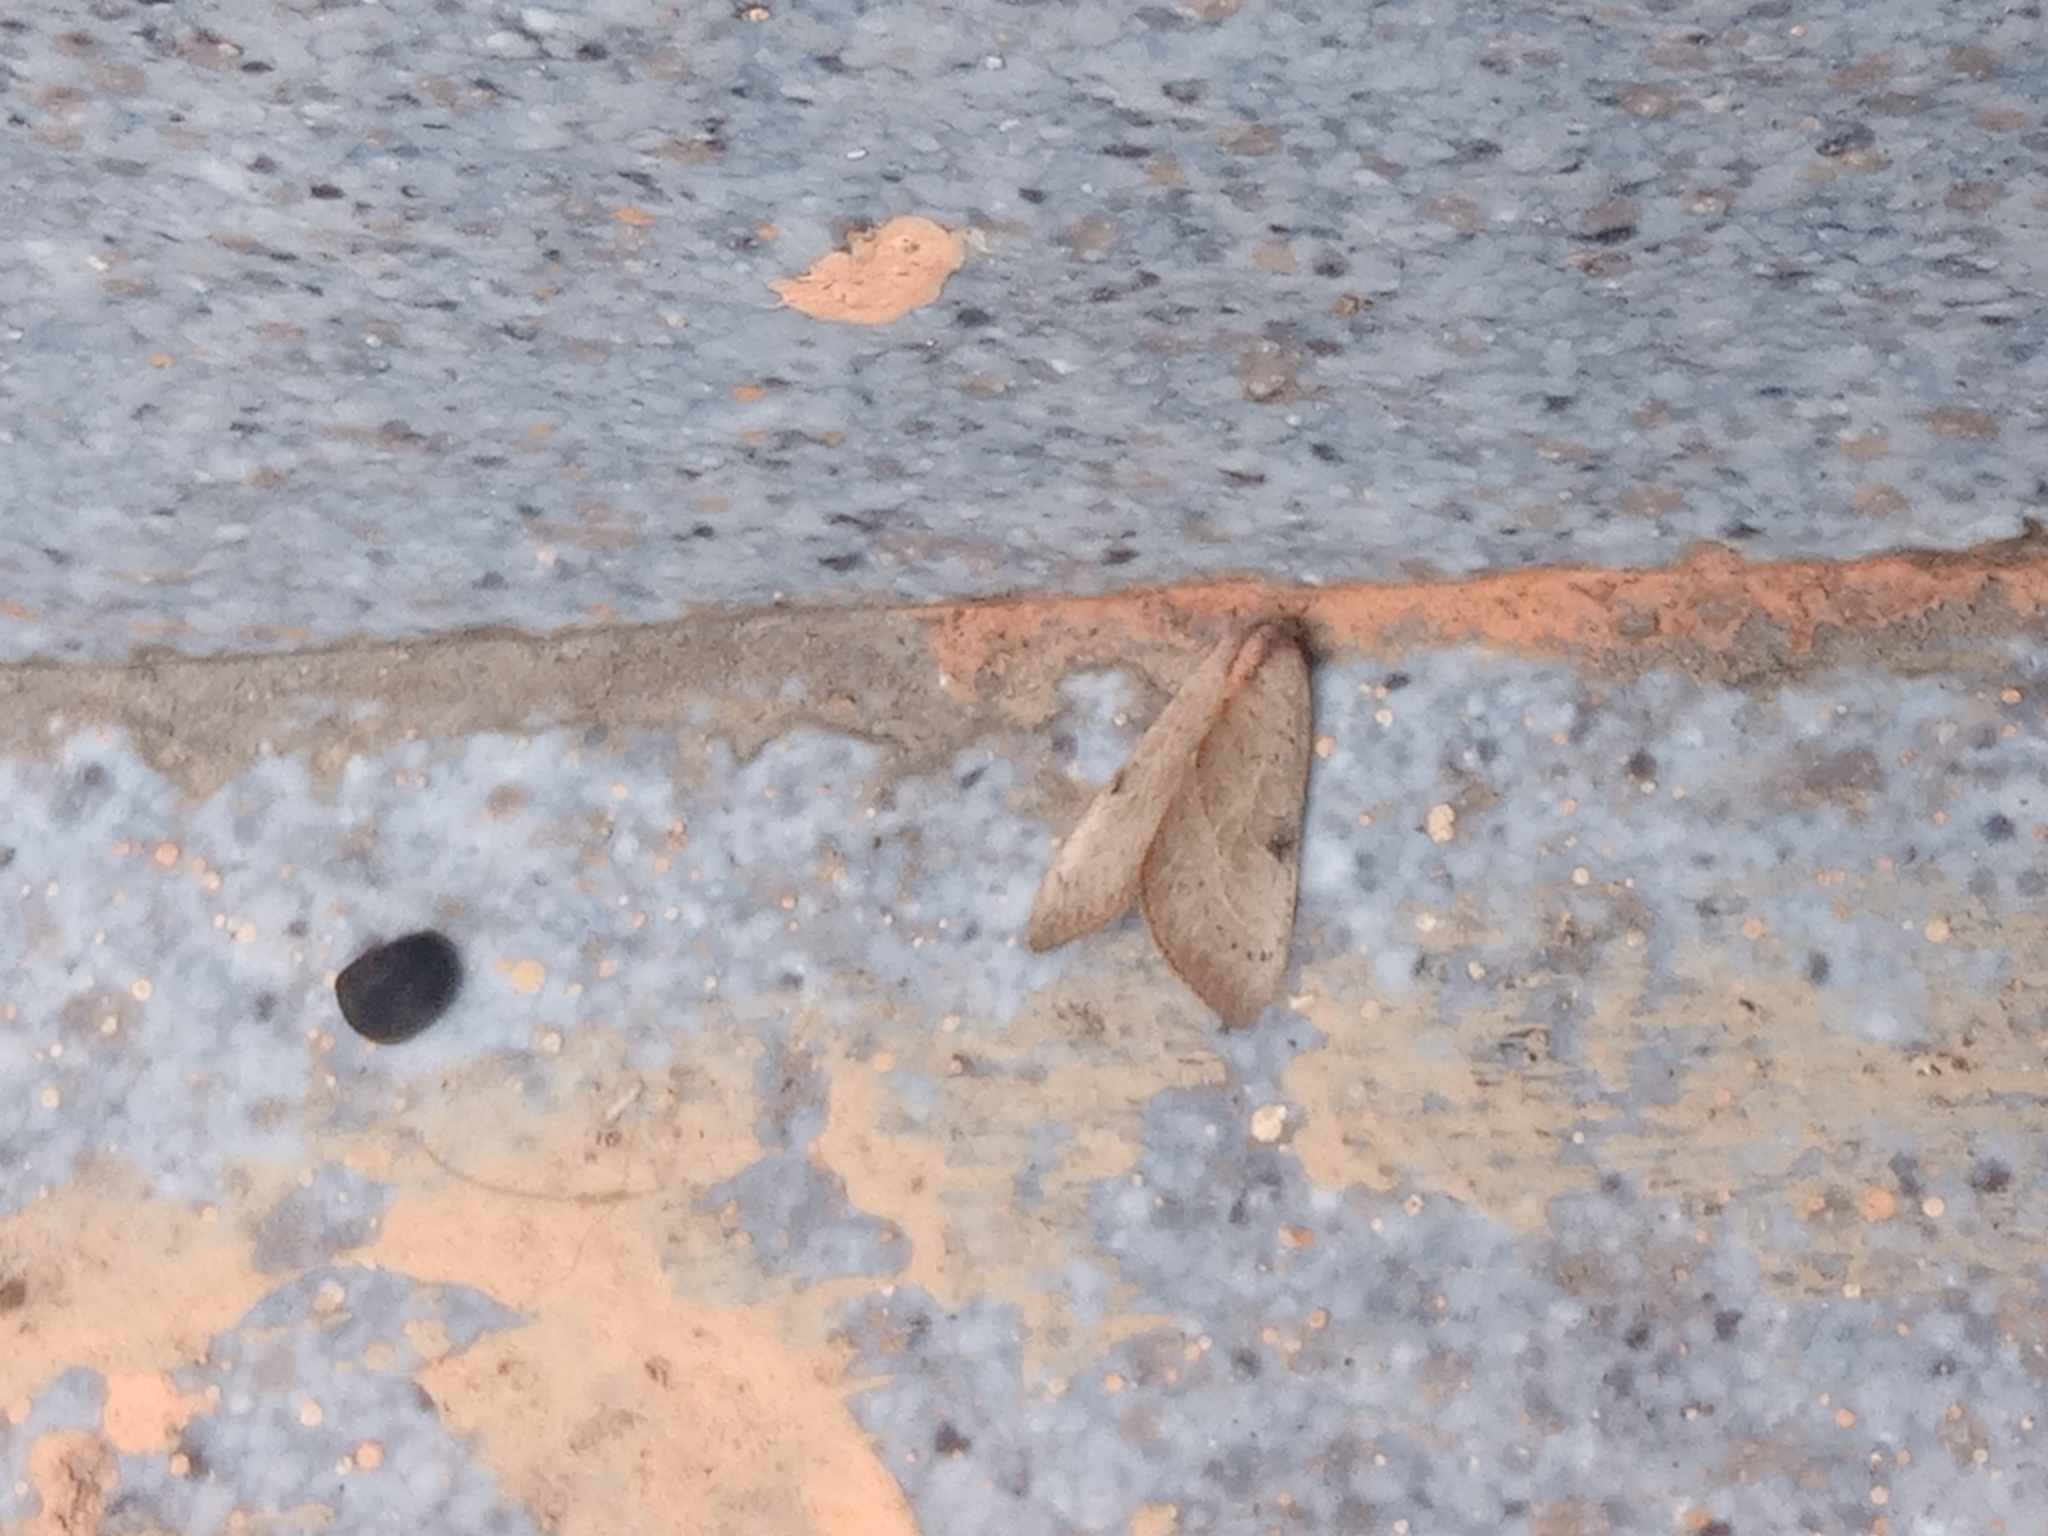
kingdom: Animalia
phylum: Arthropoda
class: Insecta
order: Lepidoptera
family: Noctuidae
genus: Galgula
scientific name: Galgula partita
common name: Wedgeling
